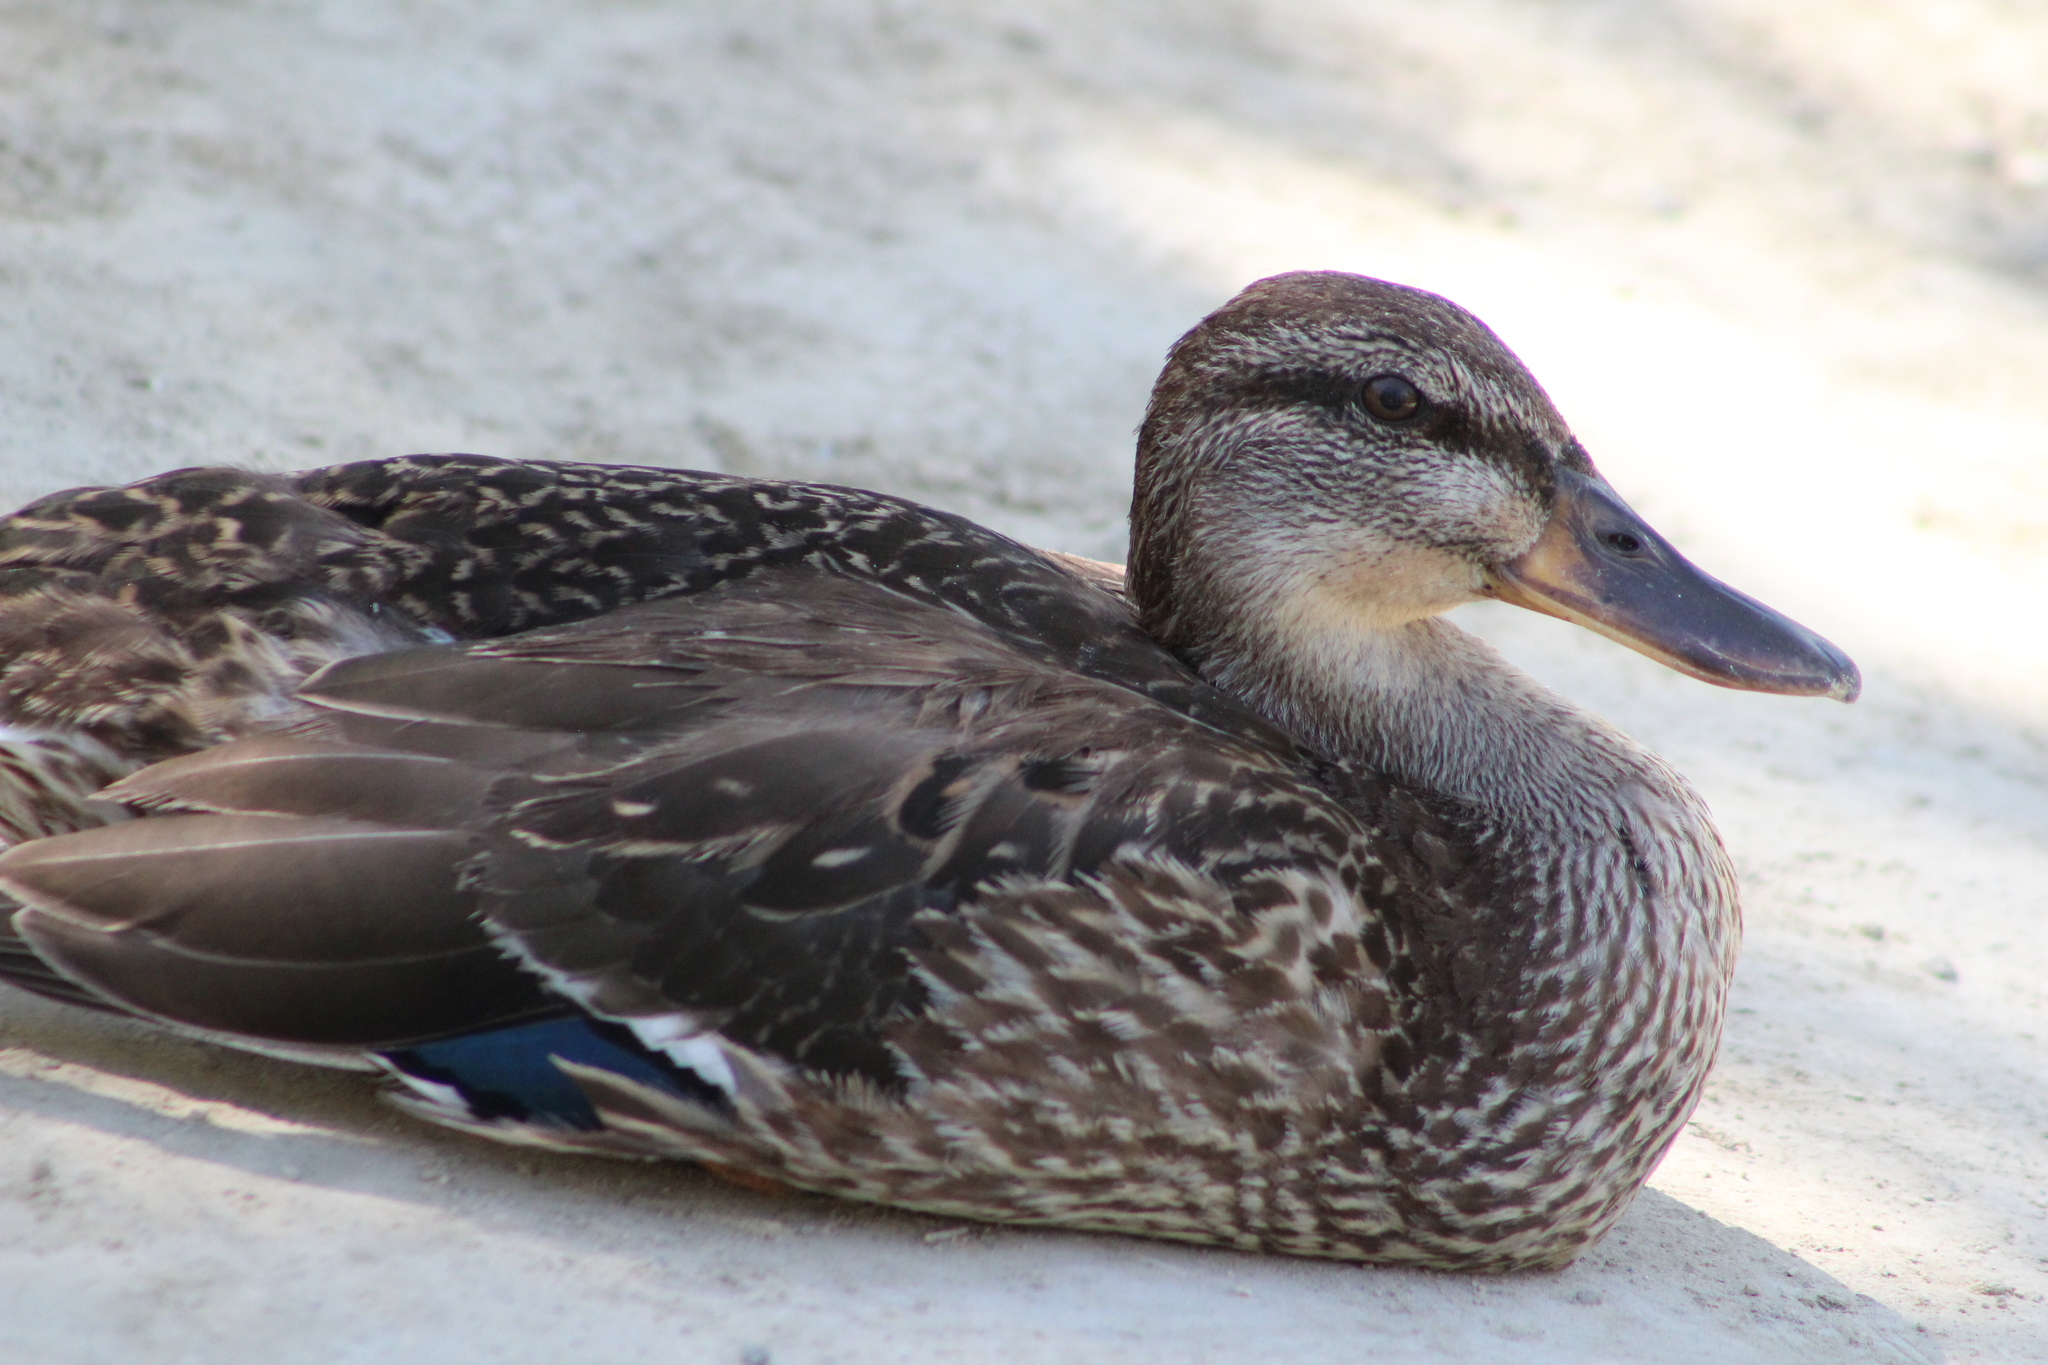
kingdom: Animalia
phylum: Chordata
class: Aves
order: Anseriformes
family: Anatidae
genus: Anas
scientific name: Anas platyrhynchos
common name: Mallard
